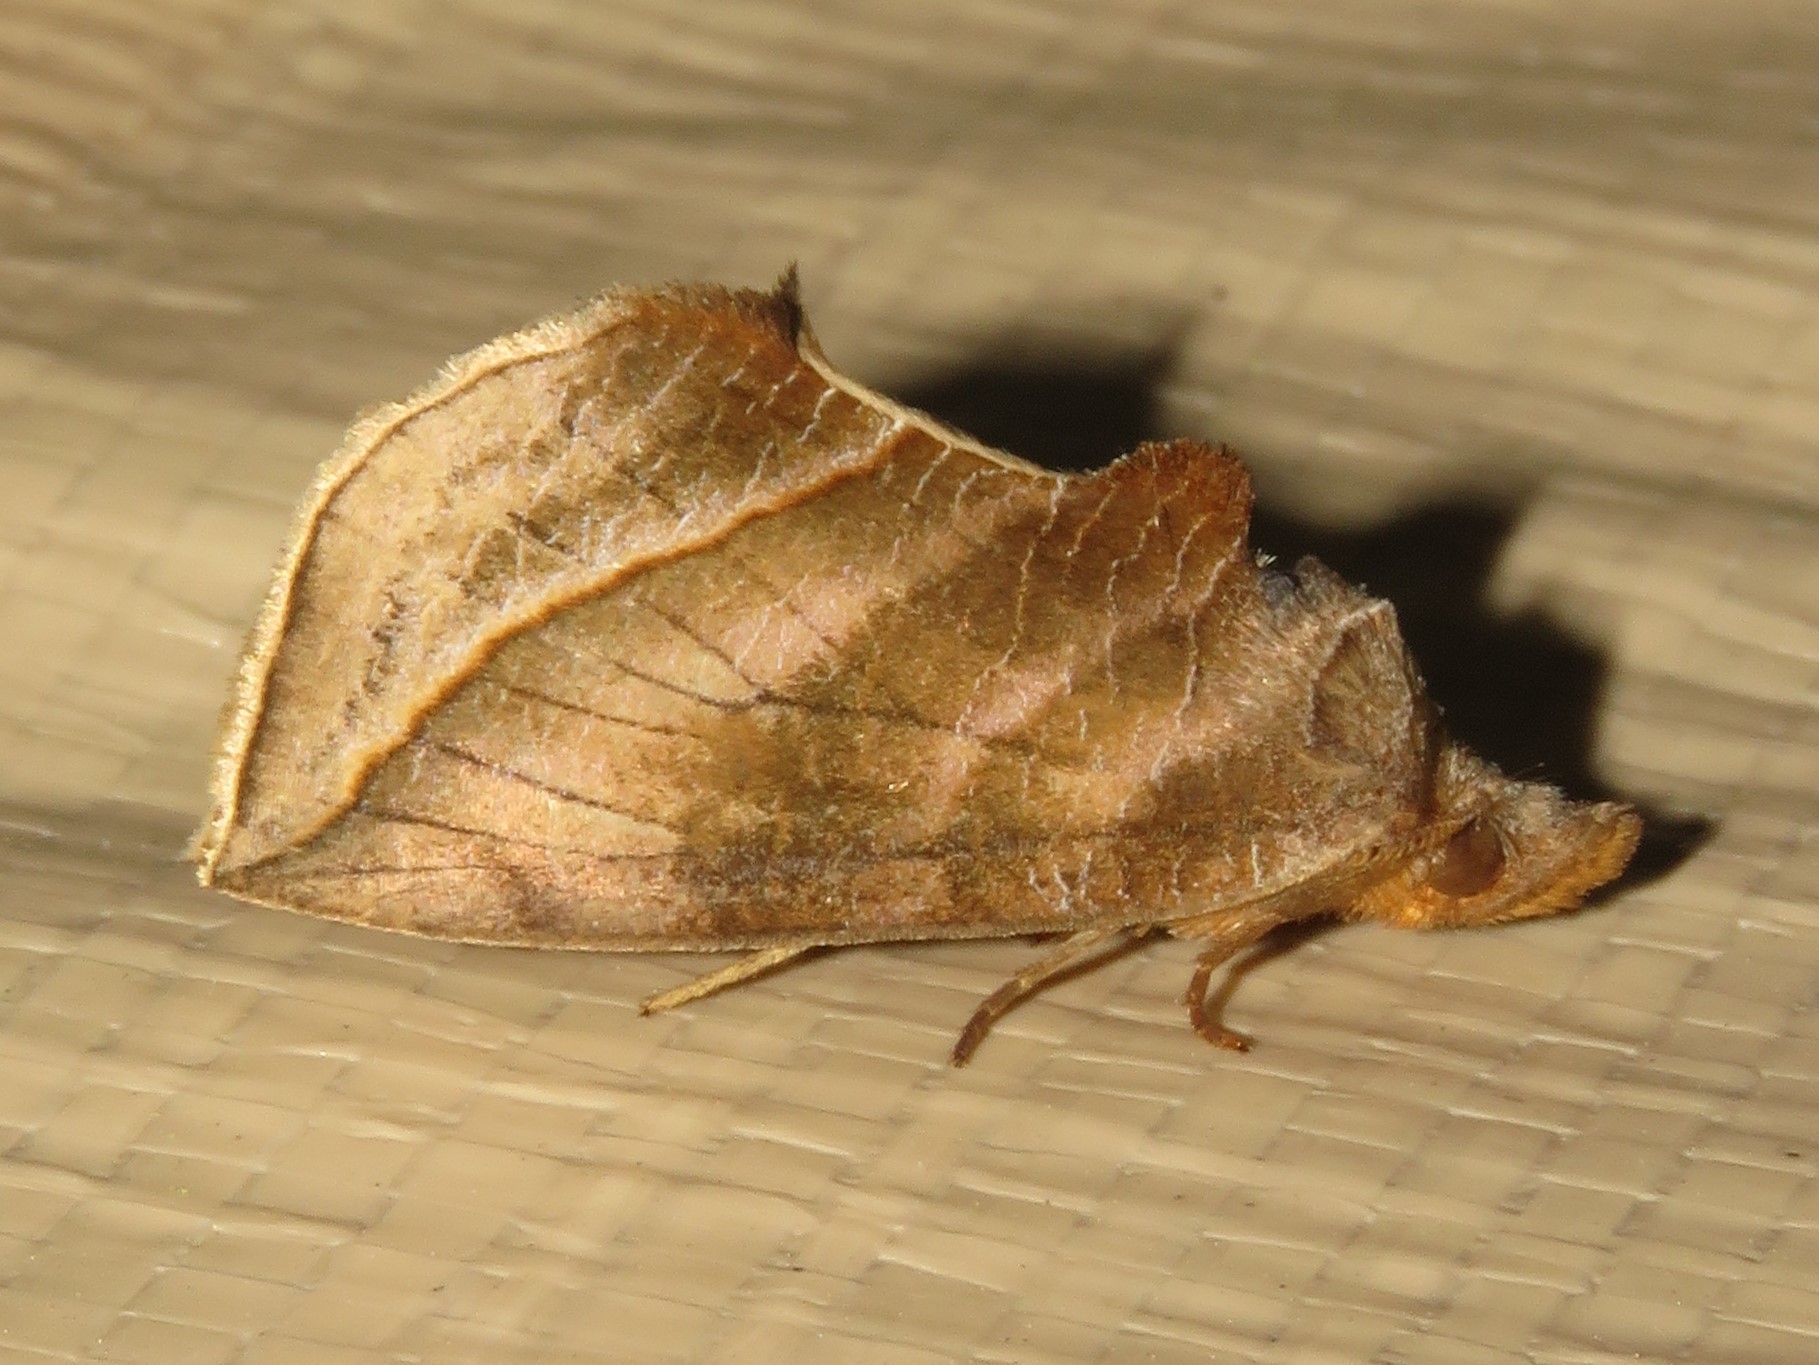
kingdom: Animalia
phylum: Arthropoda
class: Insecta
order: Lepidoptera
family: Erebidae
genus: Calyptra
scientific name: Calyptra canadensis
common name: Canadian owlet
